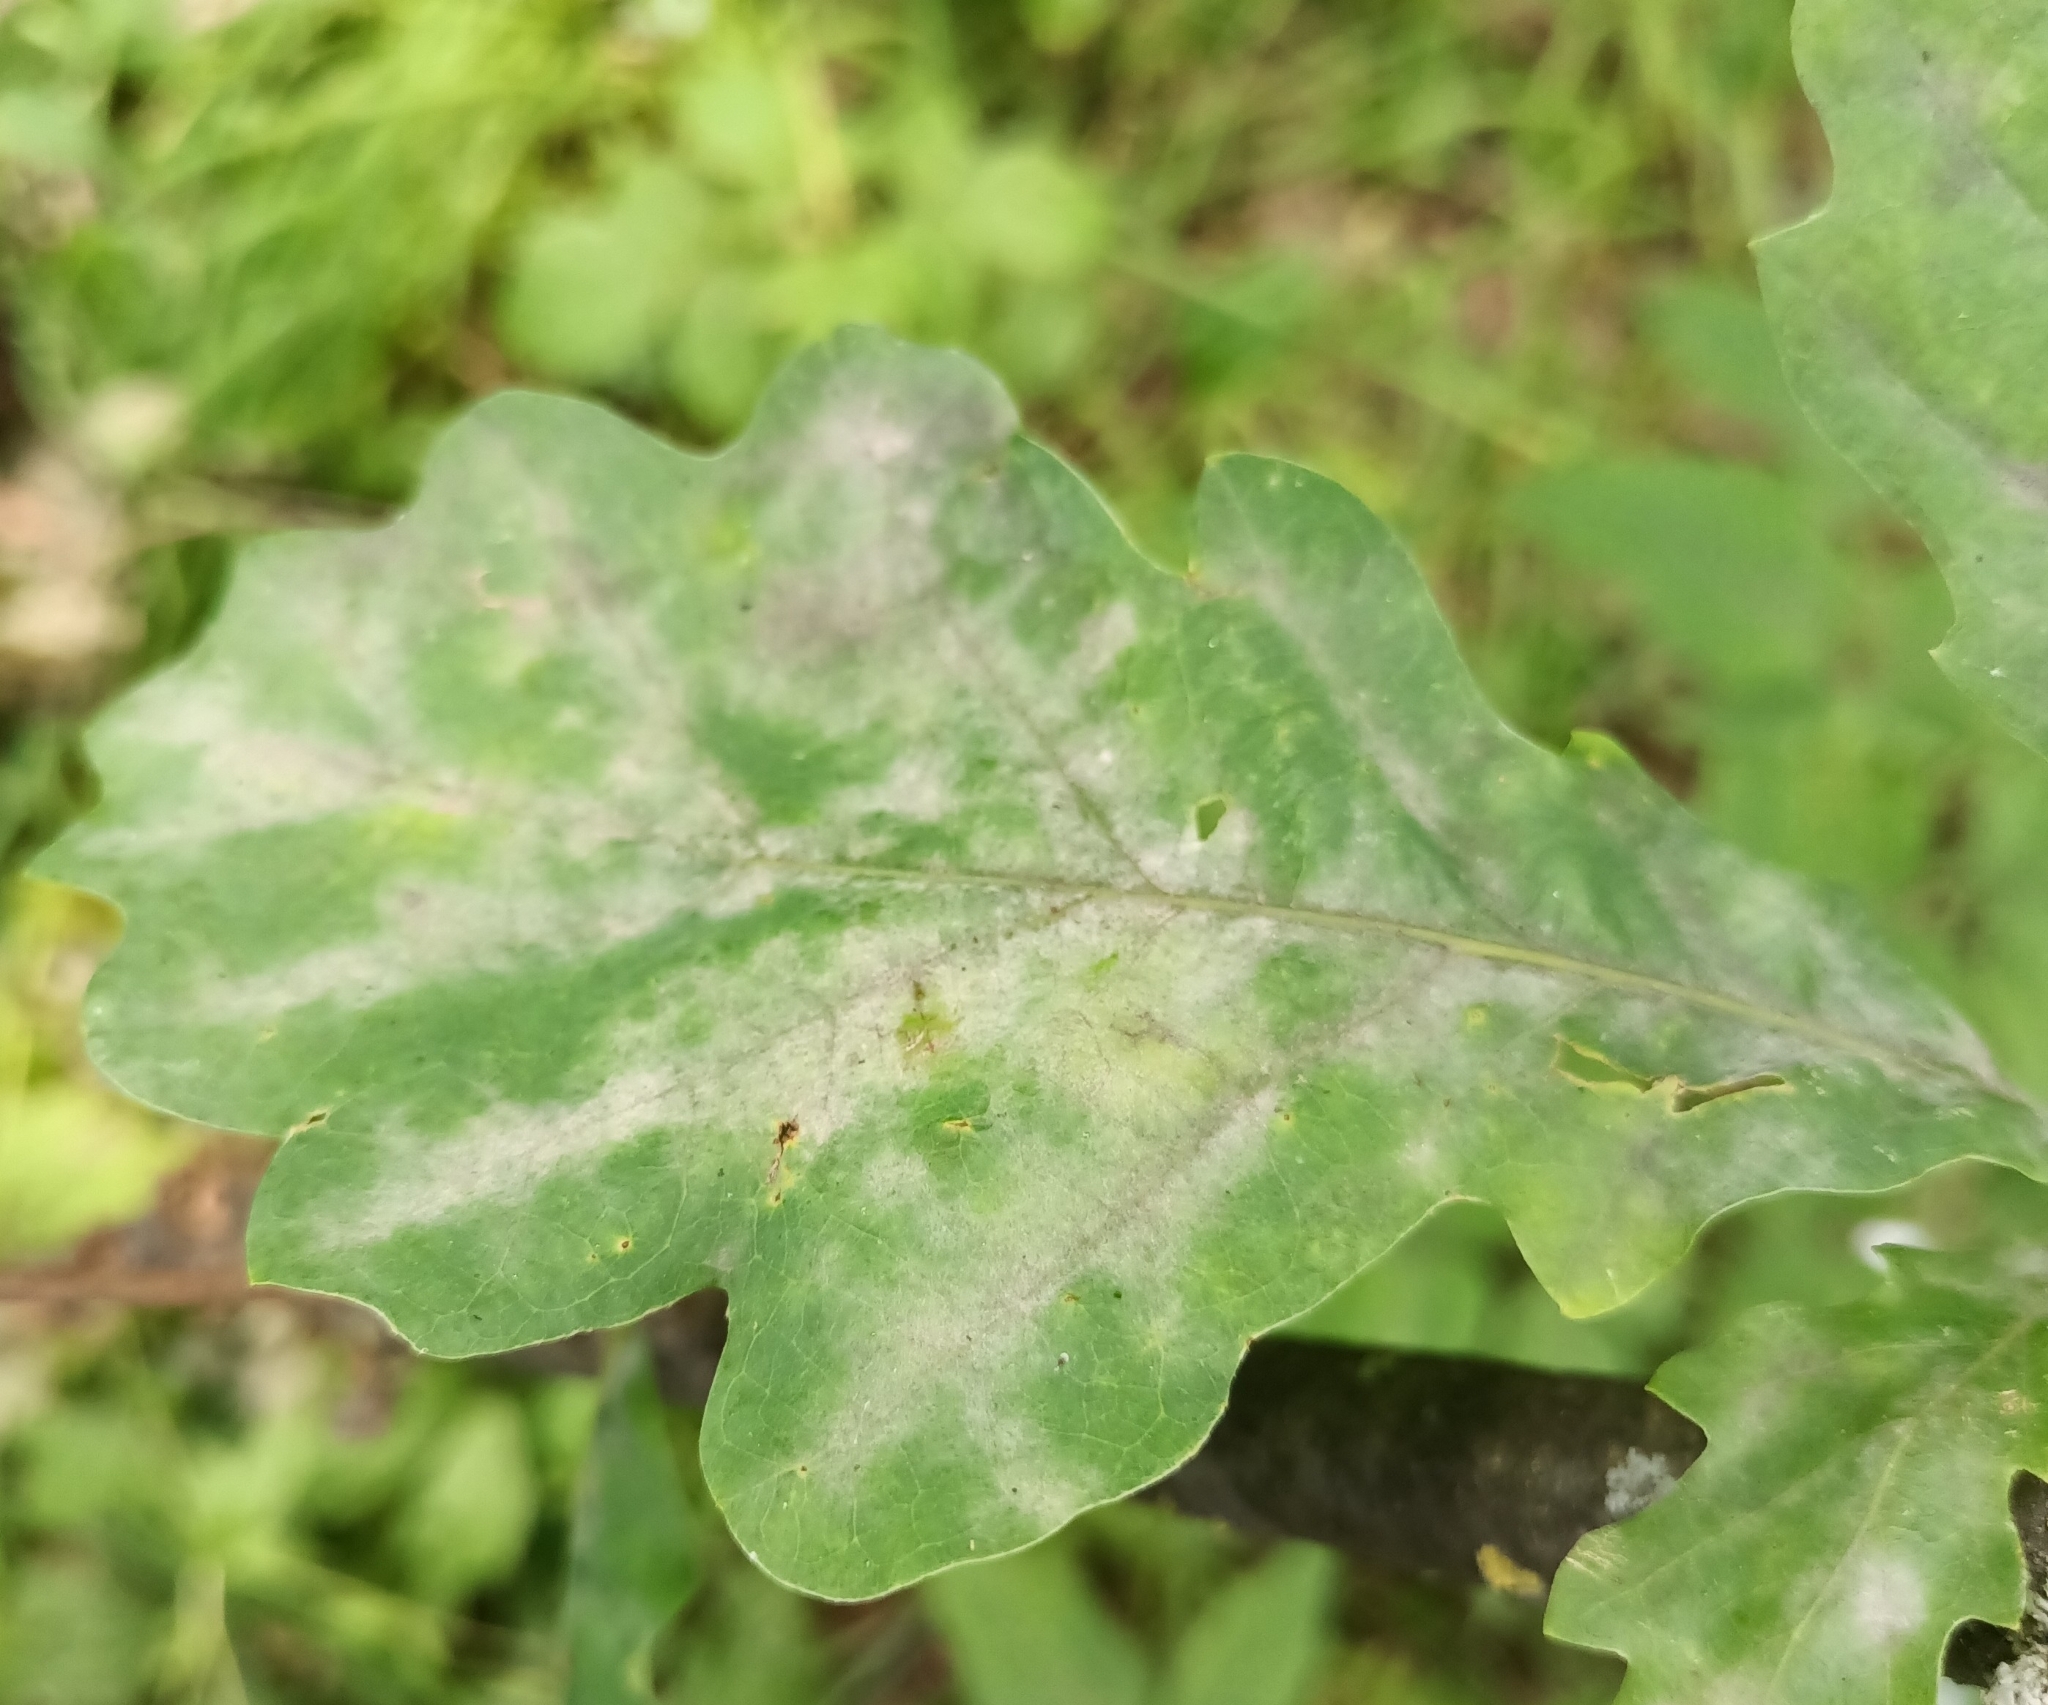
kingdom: Fungi
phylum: Ascomycota
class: Leotiomycetes
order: Helotiales
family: Erysiphaceae
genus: Erysiphe
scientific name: Erysiphe alphitoides
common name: Oak mildew
